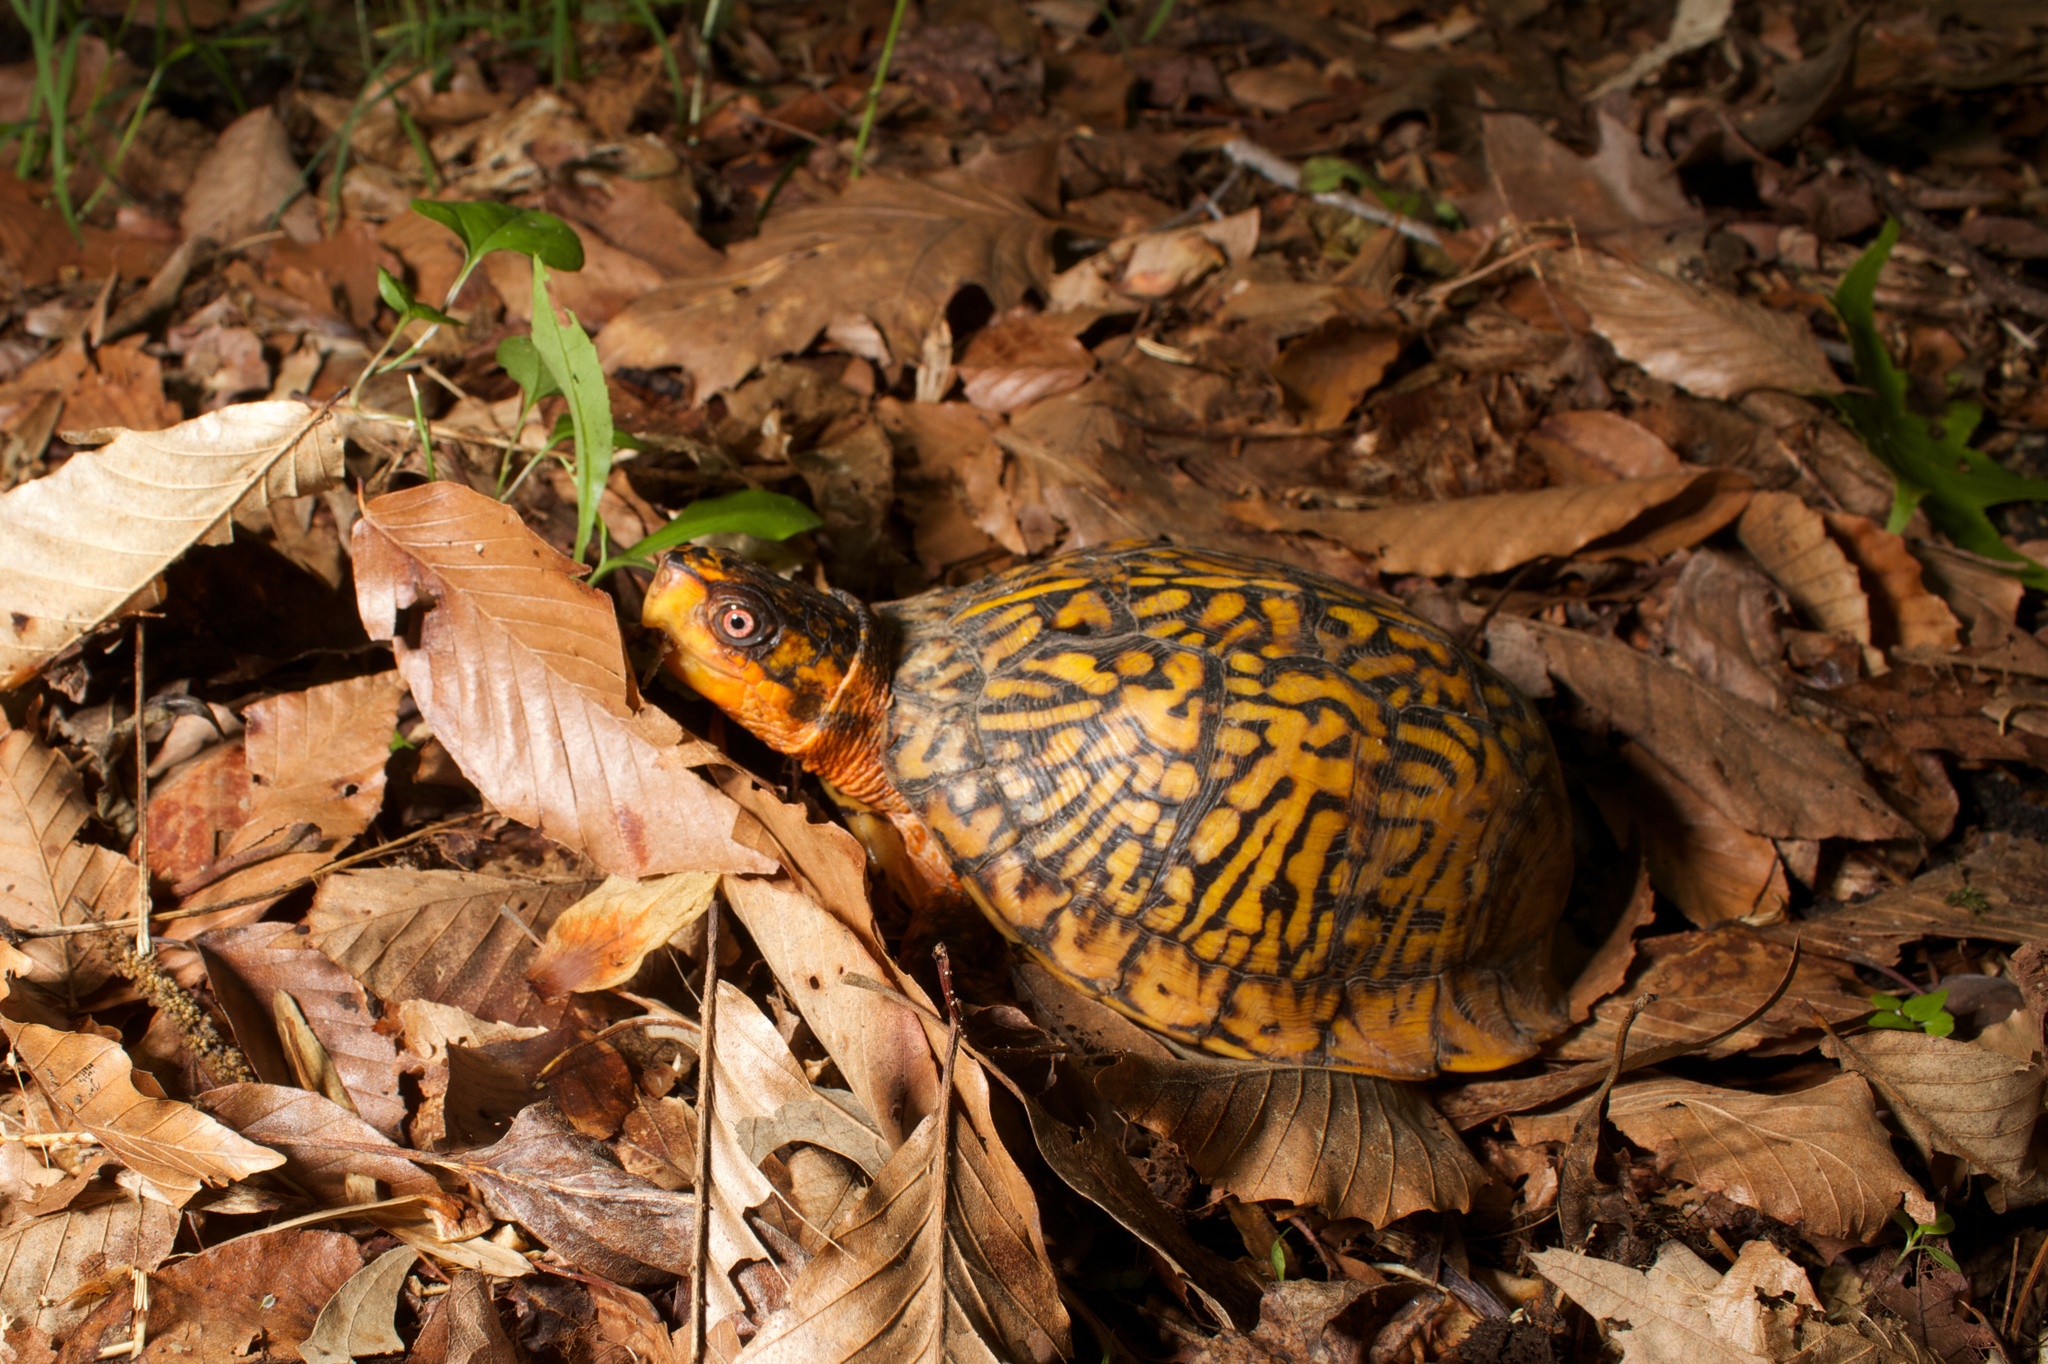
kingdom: Animalia
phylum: Chordata
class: Testudines
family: Emydidae
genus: Terrapene
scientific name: Terrapene carolina
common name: Common box turtle
